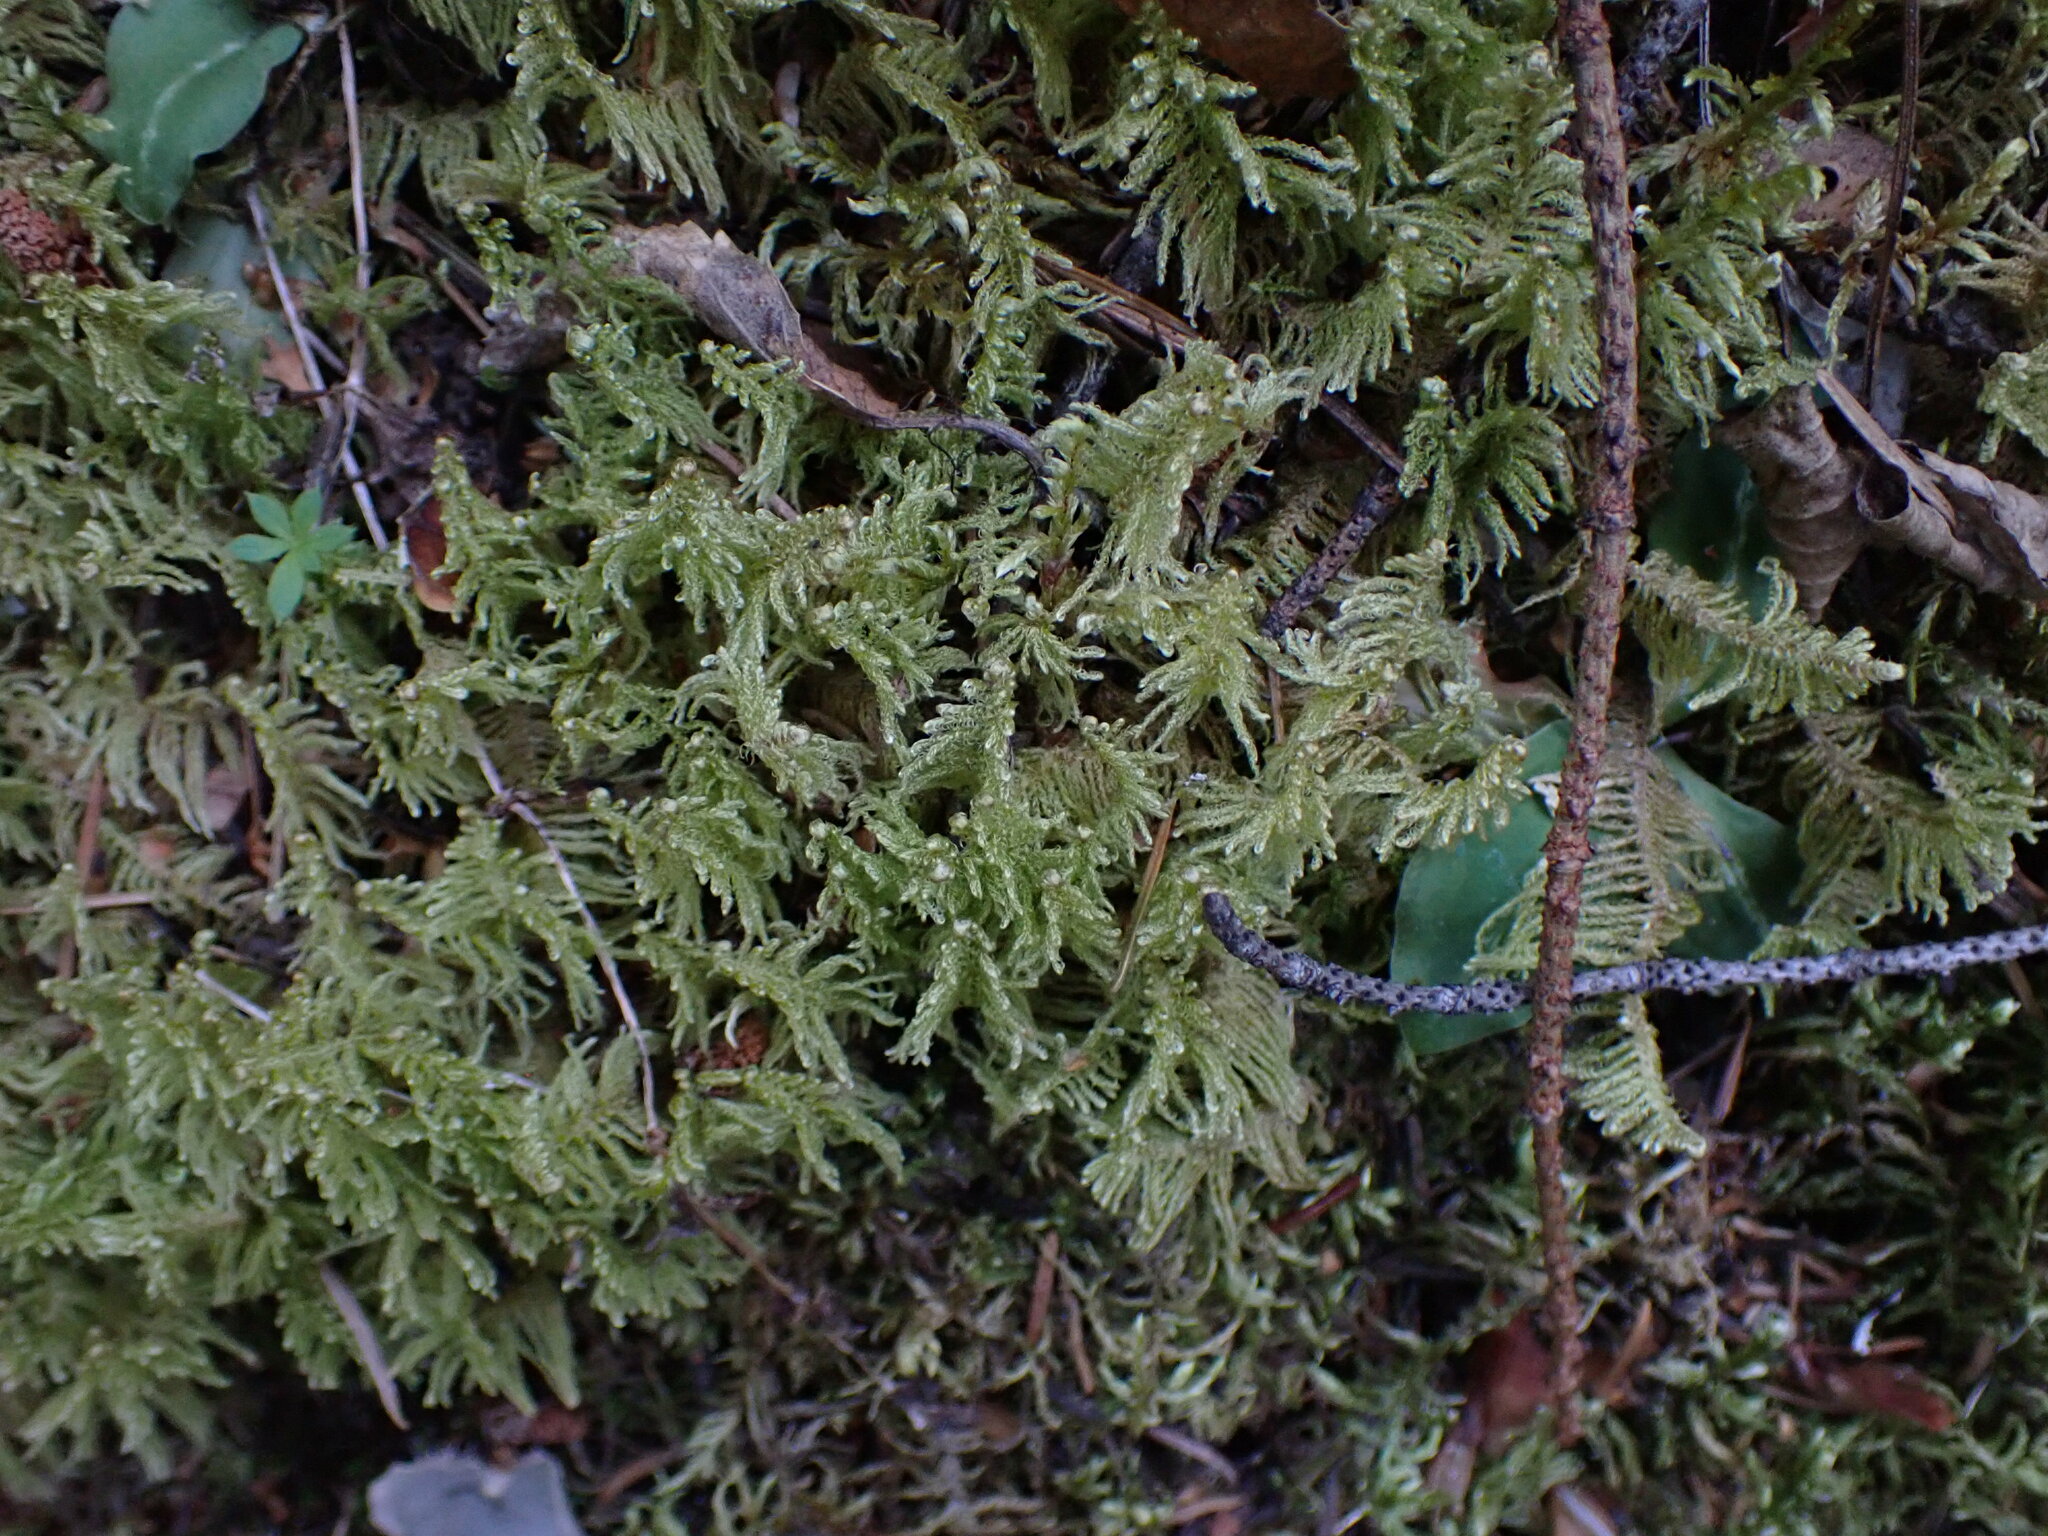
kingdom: Plantae
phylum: Bryophyta
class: Bryopsida
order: Hypnales
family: Pylaisiaceae
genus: Ptilium
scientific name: Ptilium crista-castrensis
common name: Knight's plume moss
